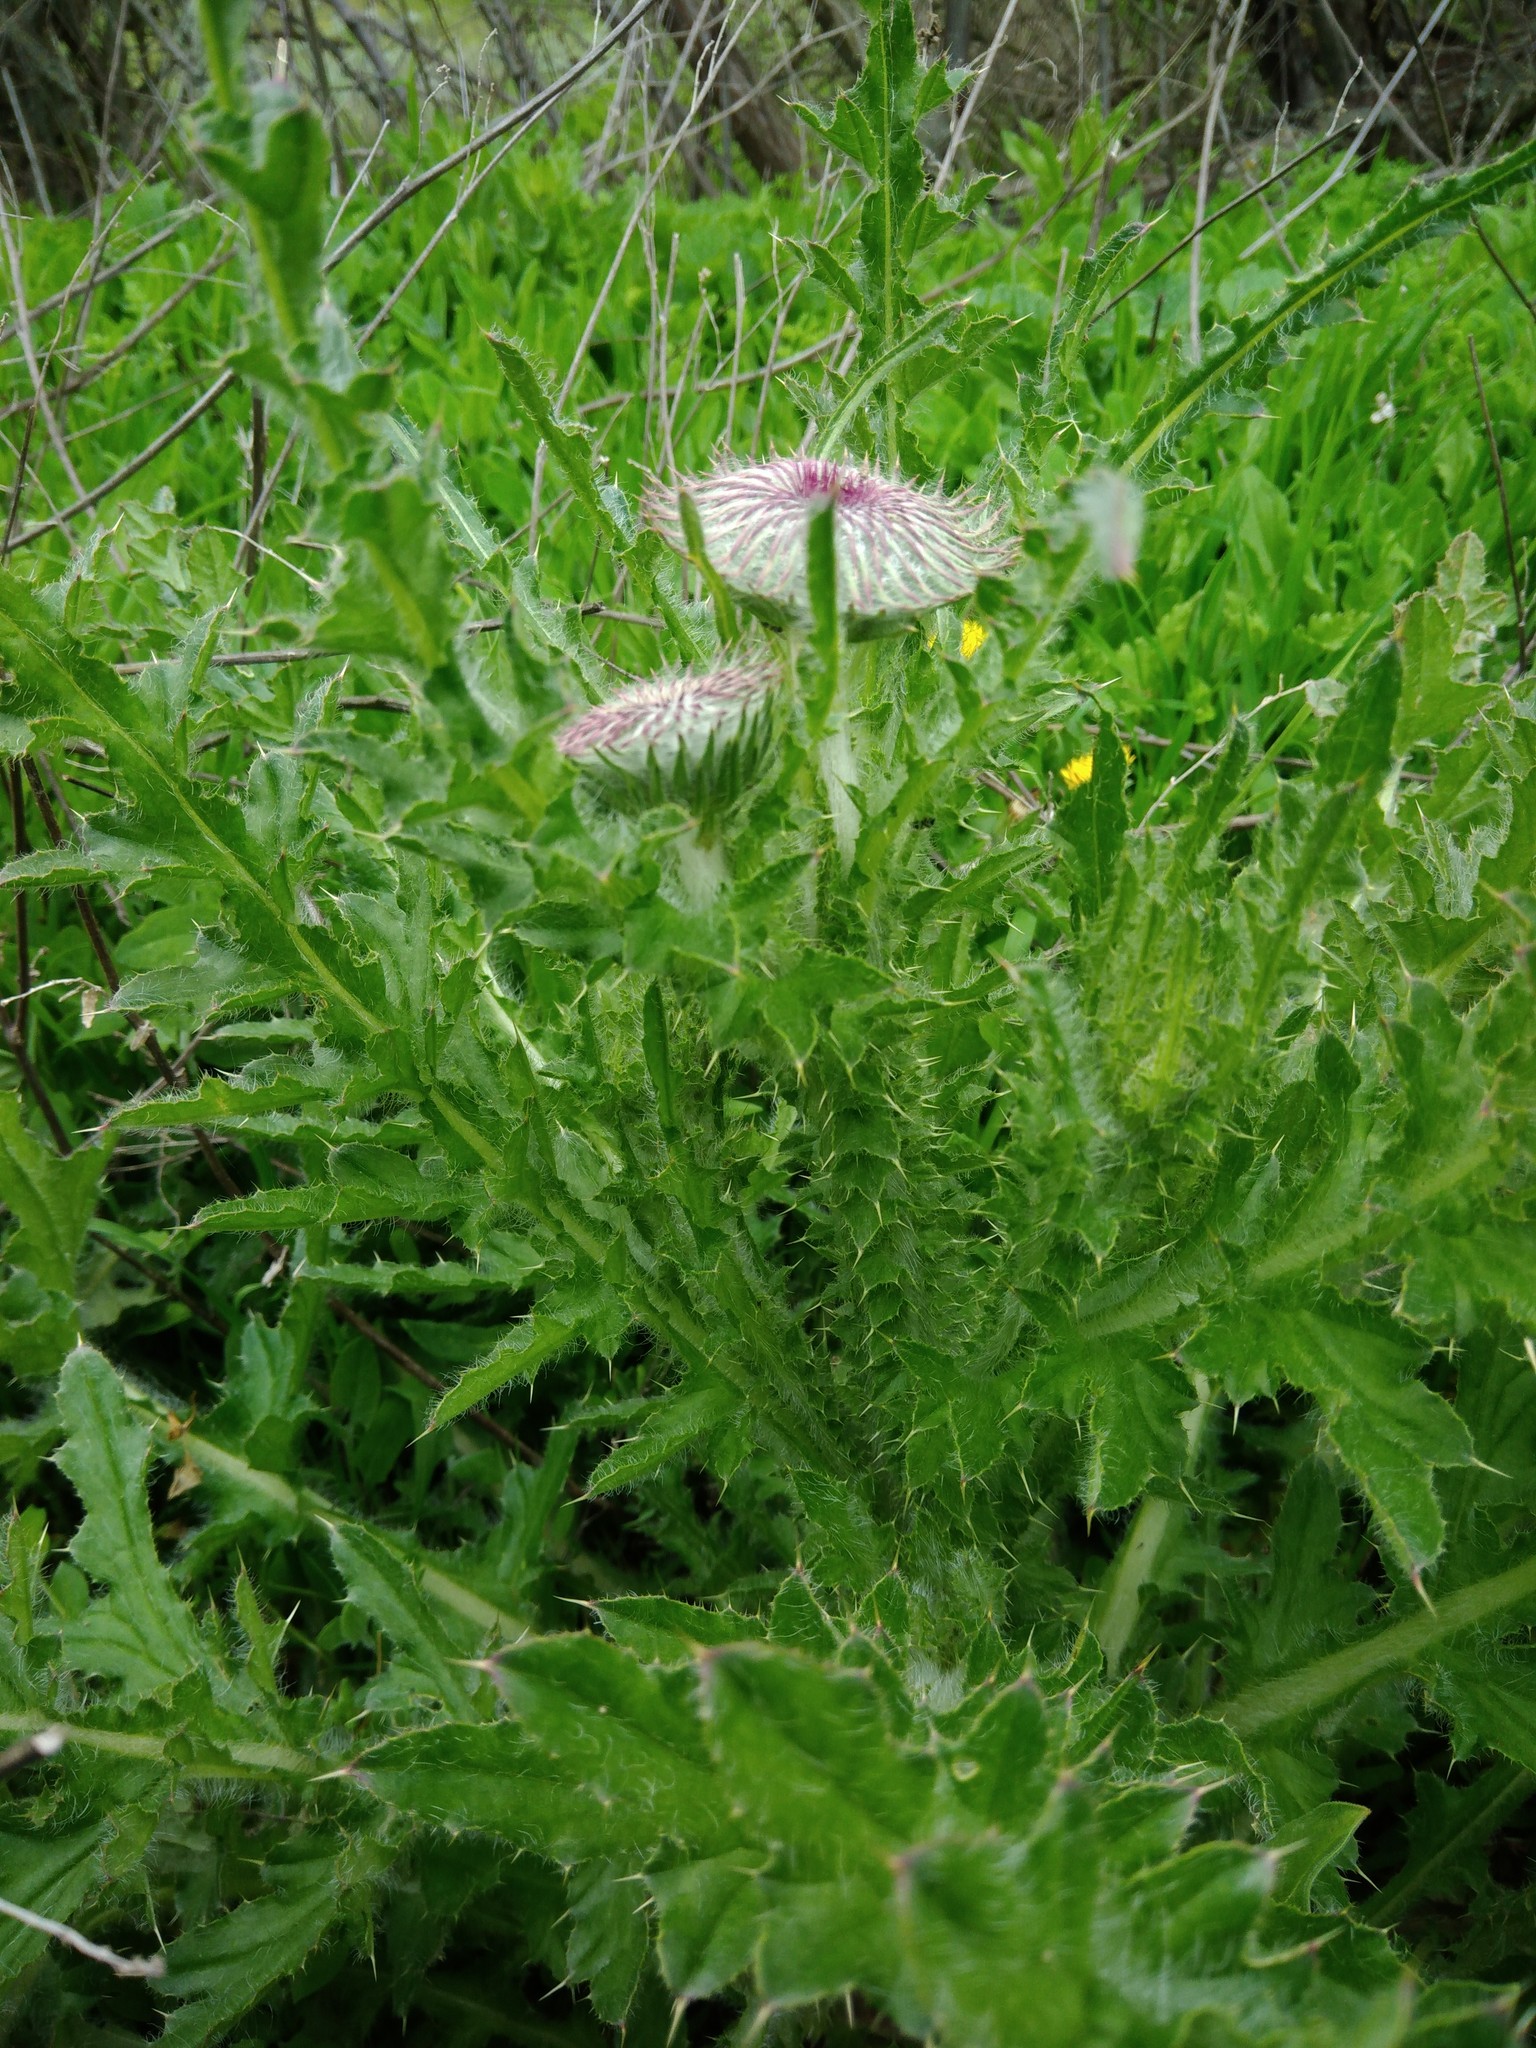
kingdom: Plantae
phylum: Tracheophyta
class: Magnoliopsida
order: Asterales
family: Asteraceae
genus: Carduus
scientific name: Carduus uncinatus
